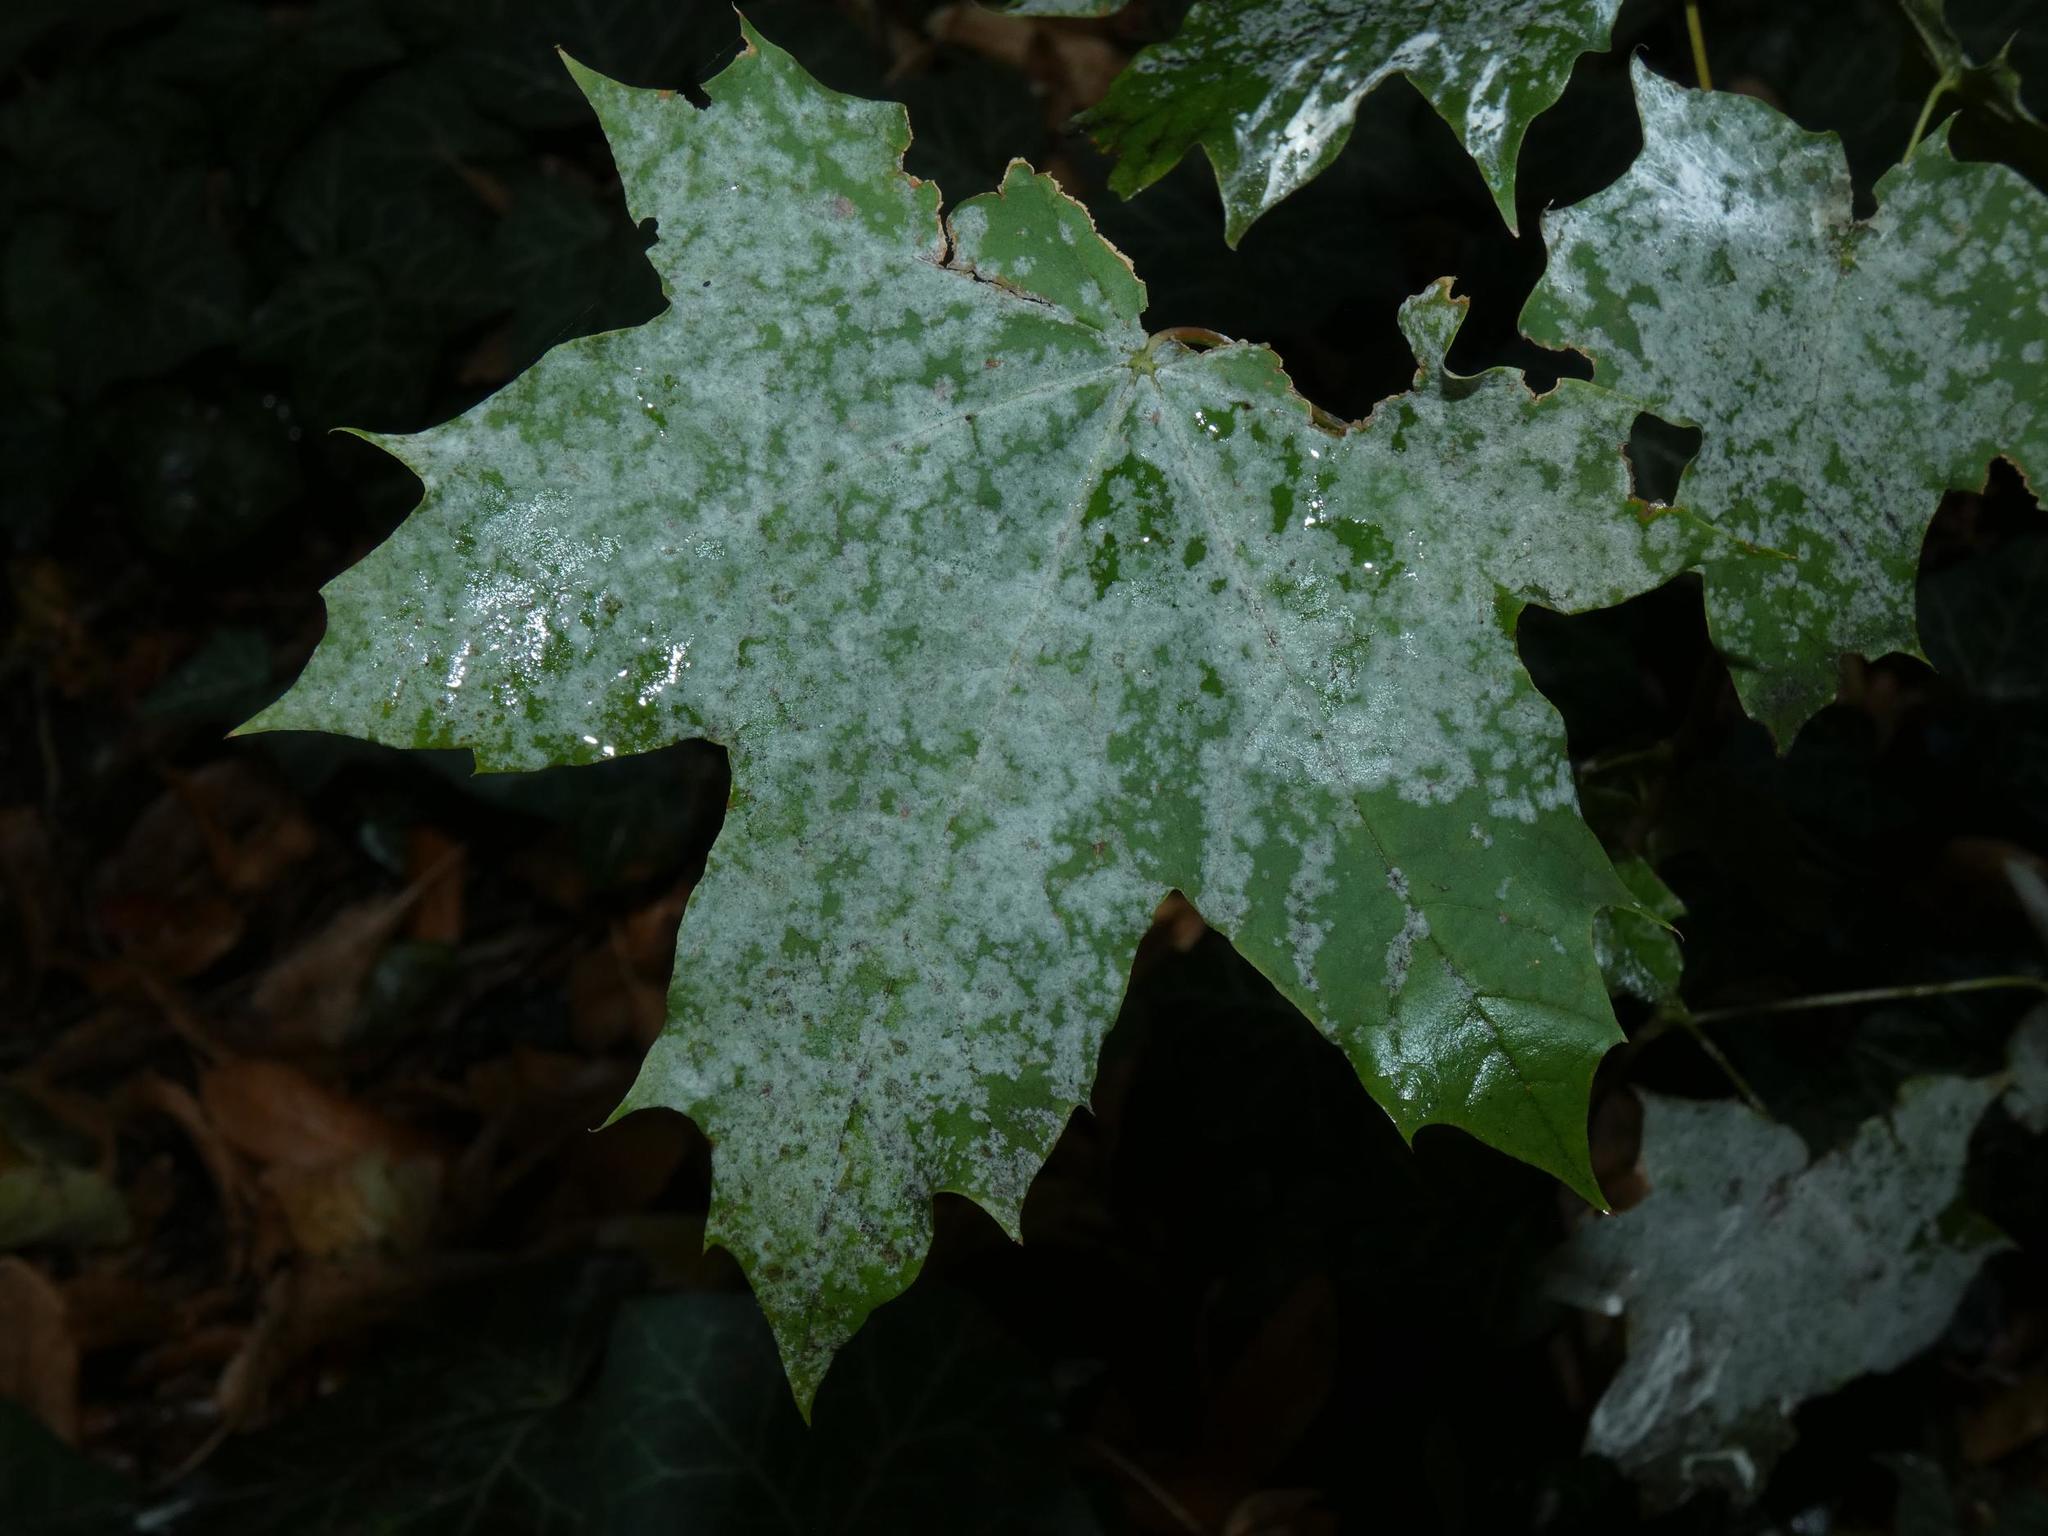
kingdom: Plantae
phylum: Tracheophyta
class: Magnoliopsida
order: Sapindales
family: Sapindaceae
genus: Acer
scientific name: Acer platanoides
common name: Norway maple
